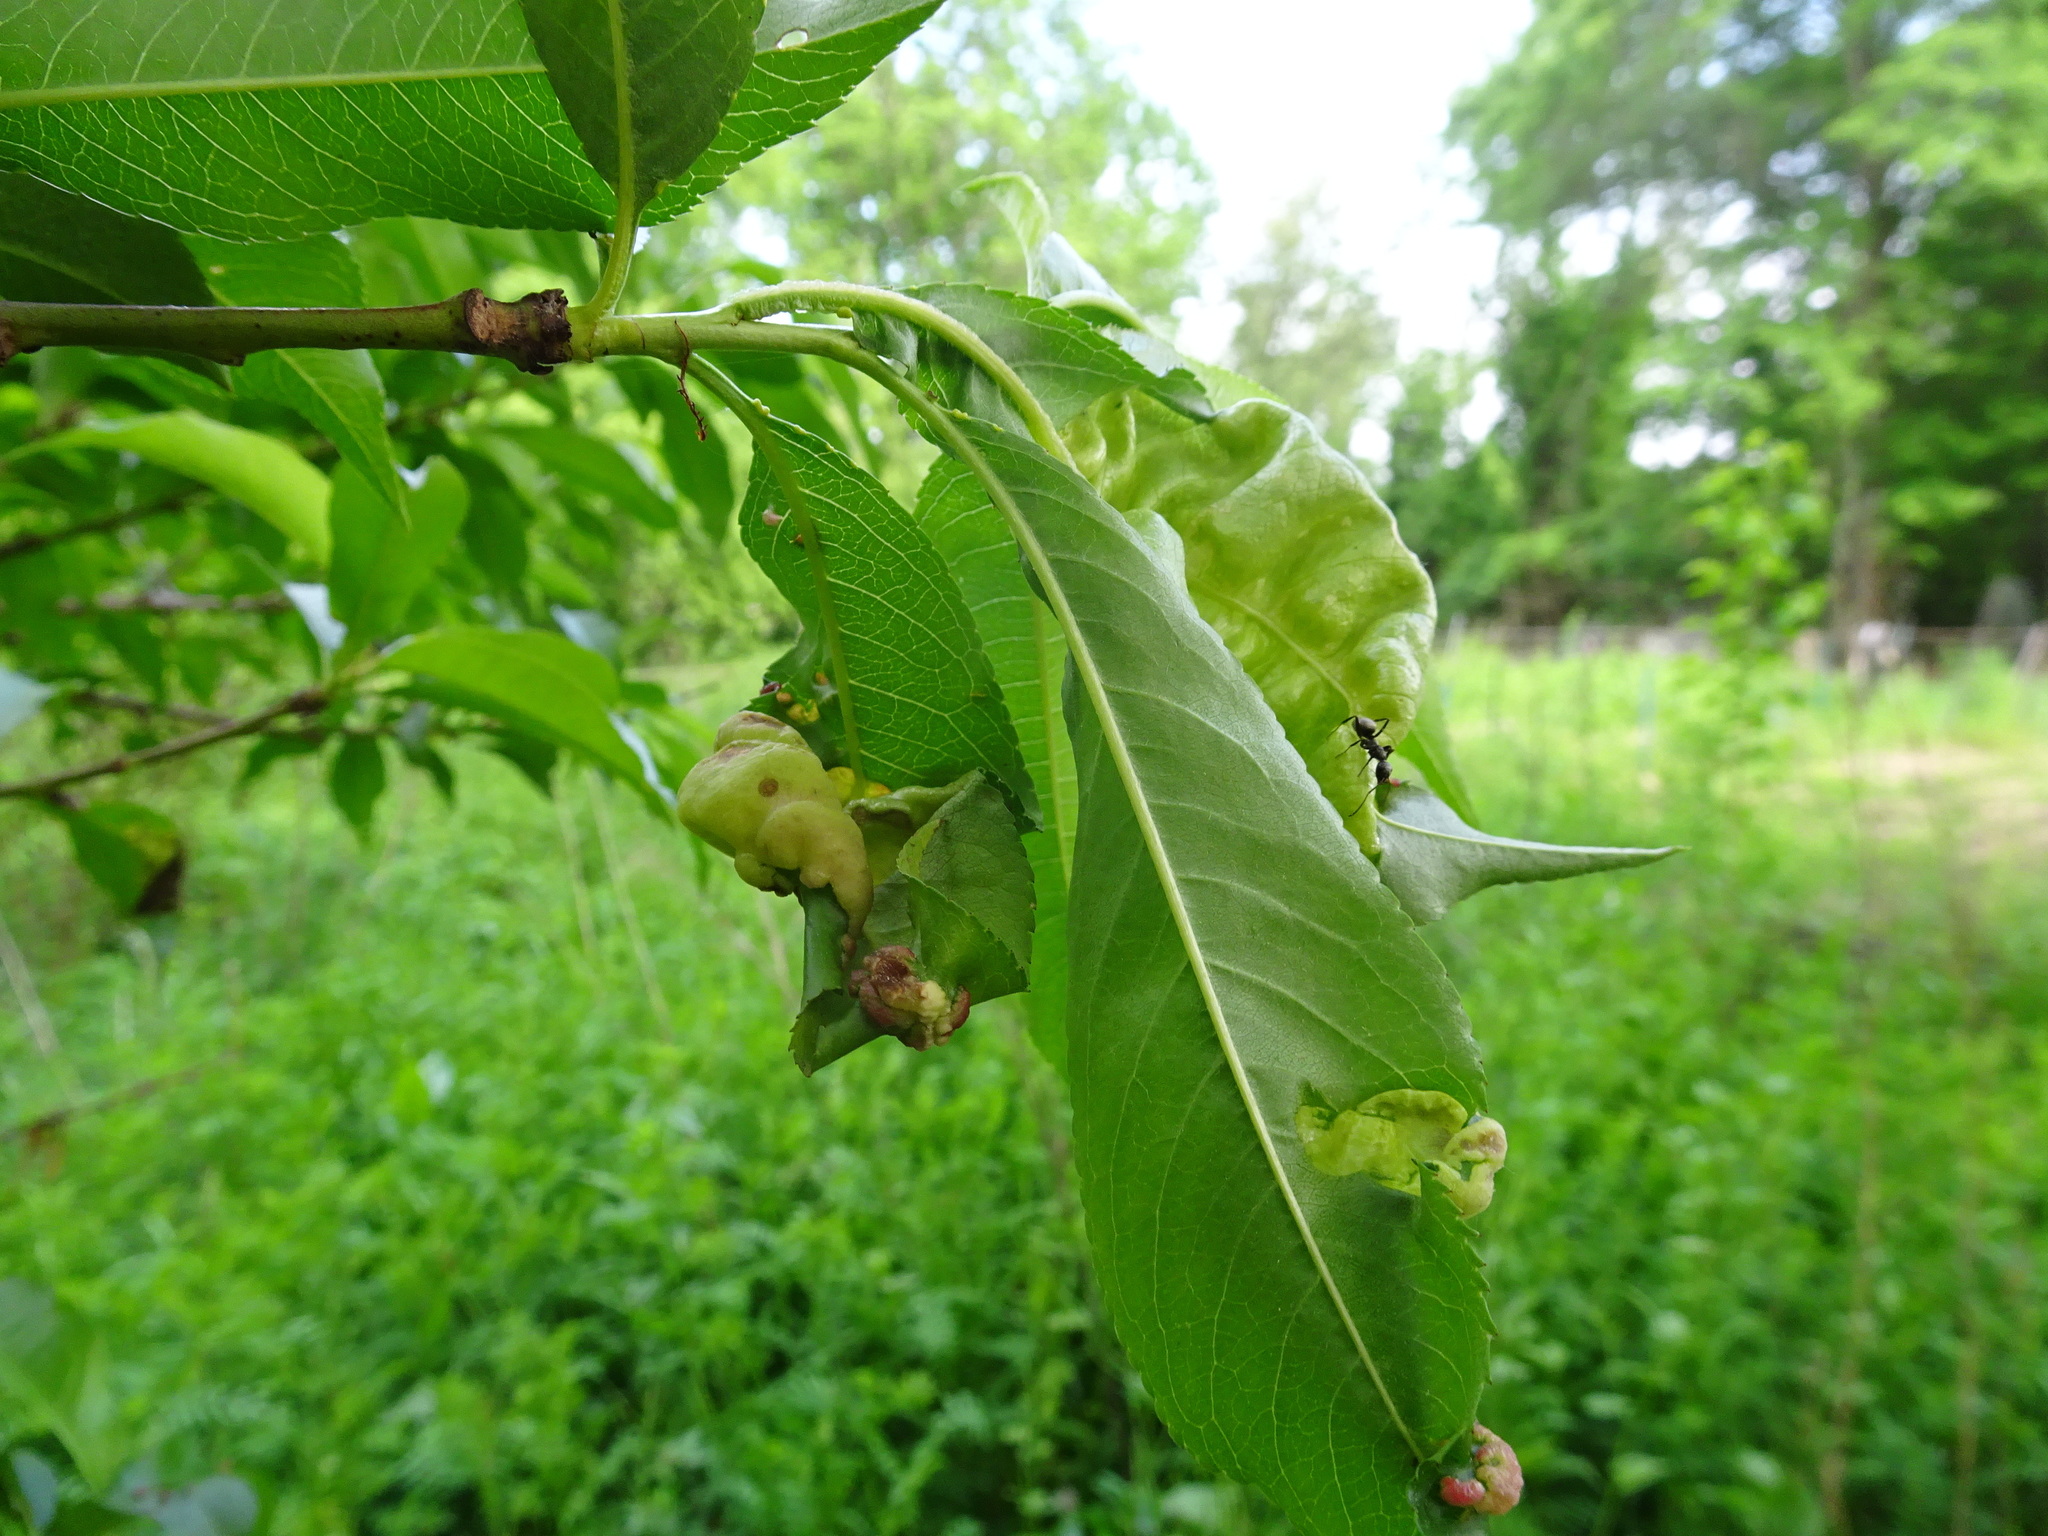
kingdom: Fungi
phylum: Ascomycota
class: Taphrinomycetes
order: Taphrinales
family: Taphrinaceae
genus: Taphrina
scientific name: Taphrina deformans
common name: Peach leaf curl
